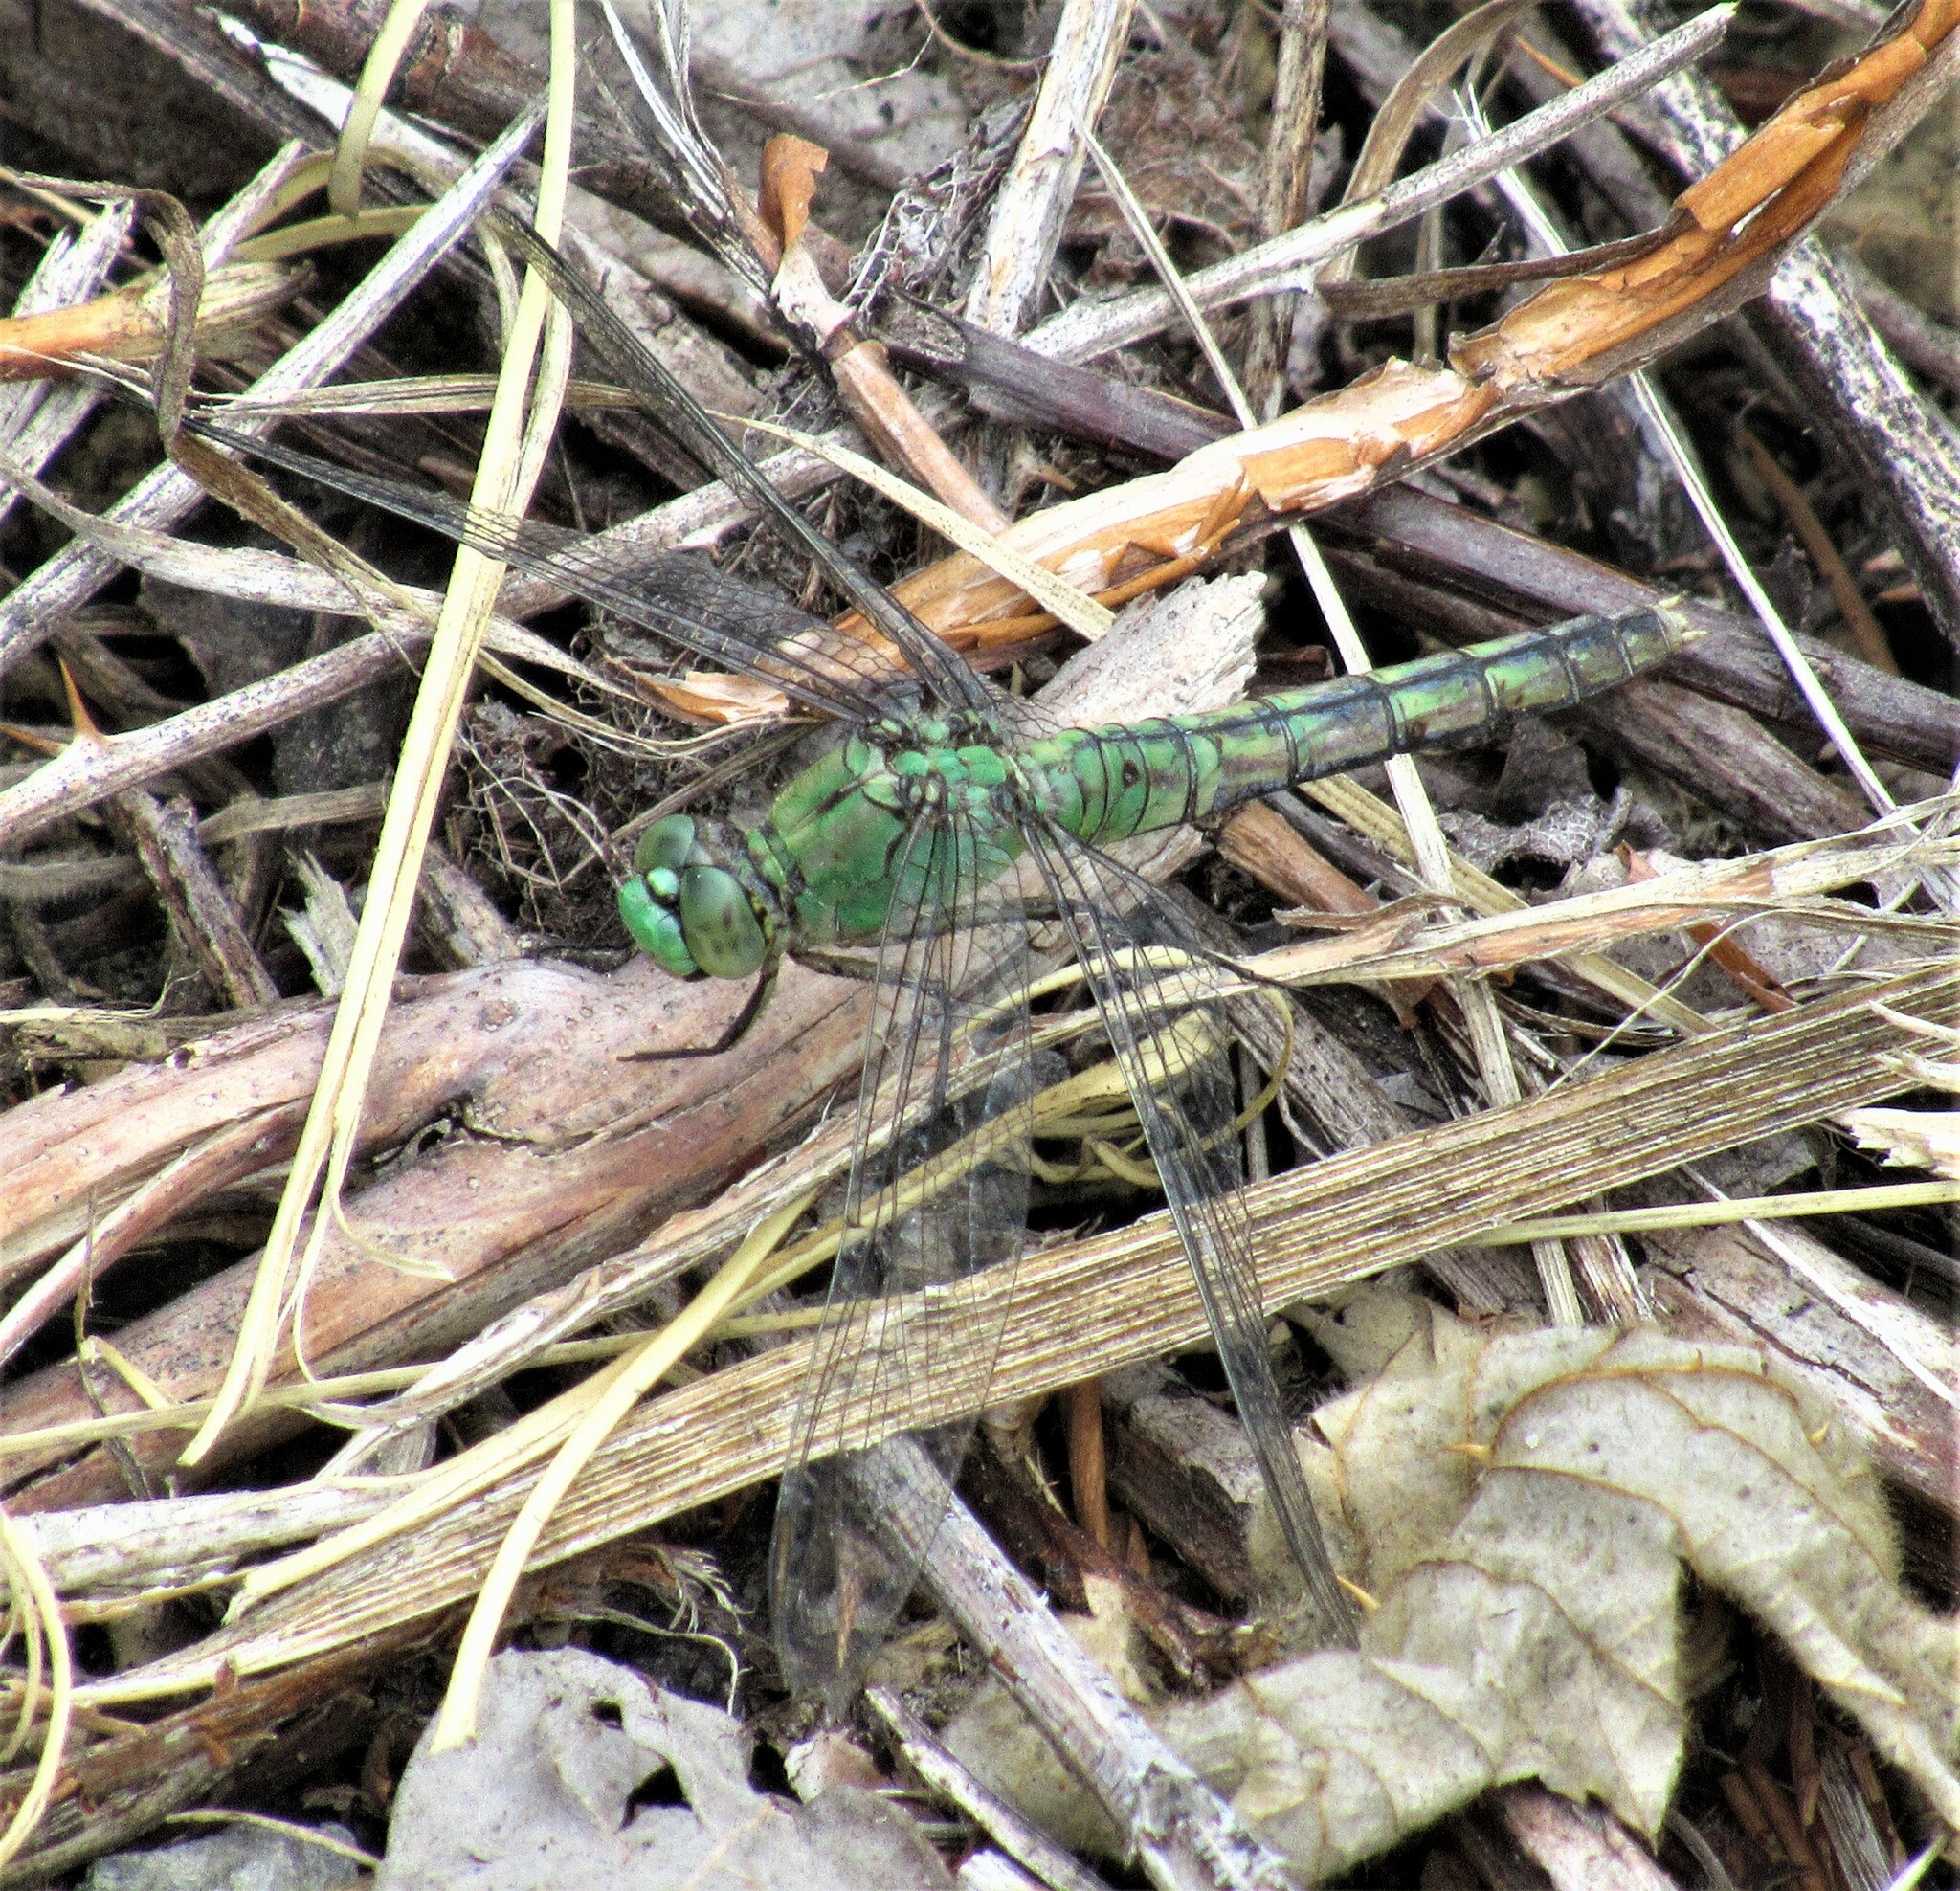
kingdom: Animalia
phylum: Arthropoda
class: Insecta
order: Odonata
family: Libellulidae
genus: Erythemis
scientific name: Erythemis collocata
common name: Western pondhawk
